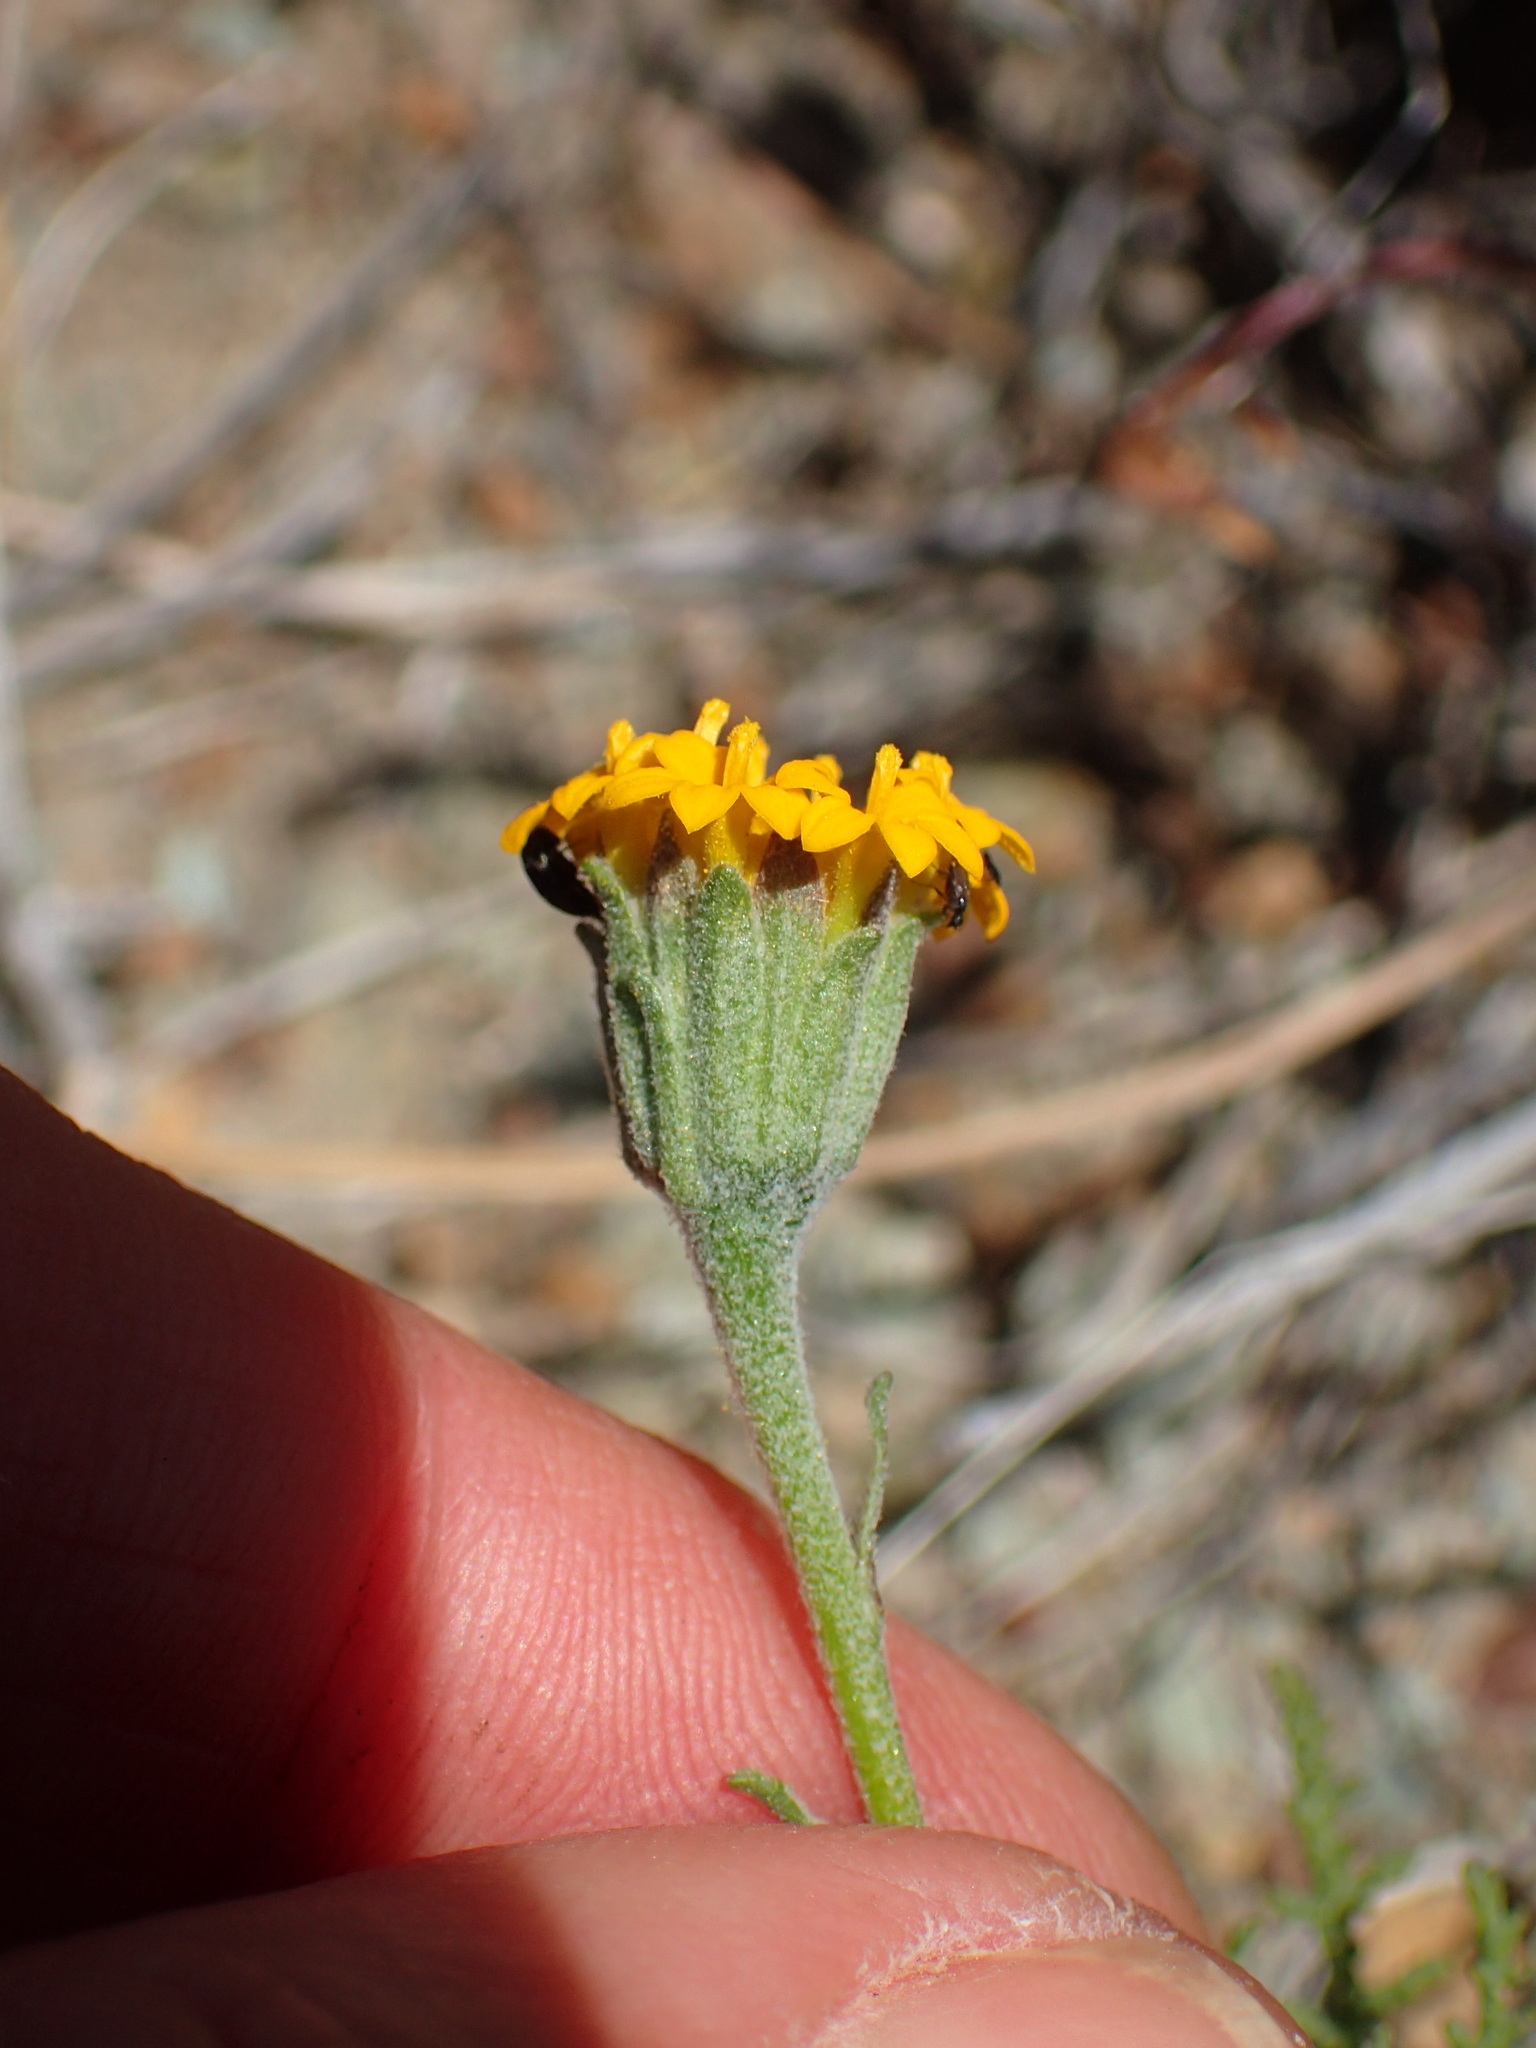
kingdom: Plantae
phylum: Tracheophyta
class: Magnoliopsida
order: Asterales
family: Asteraceae
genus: Chaenactis
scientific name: Chaenactis glabriuscula
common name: Yellow pincushion
